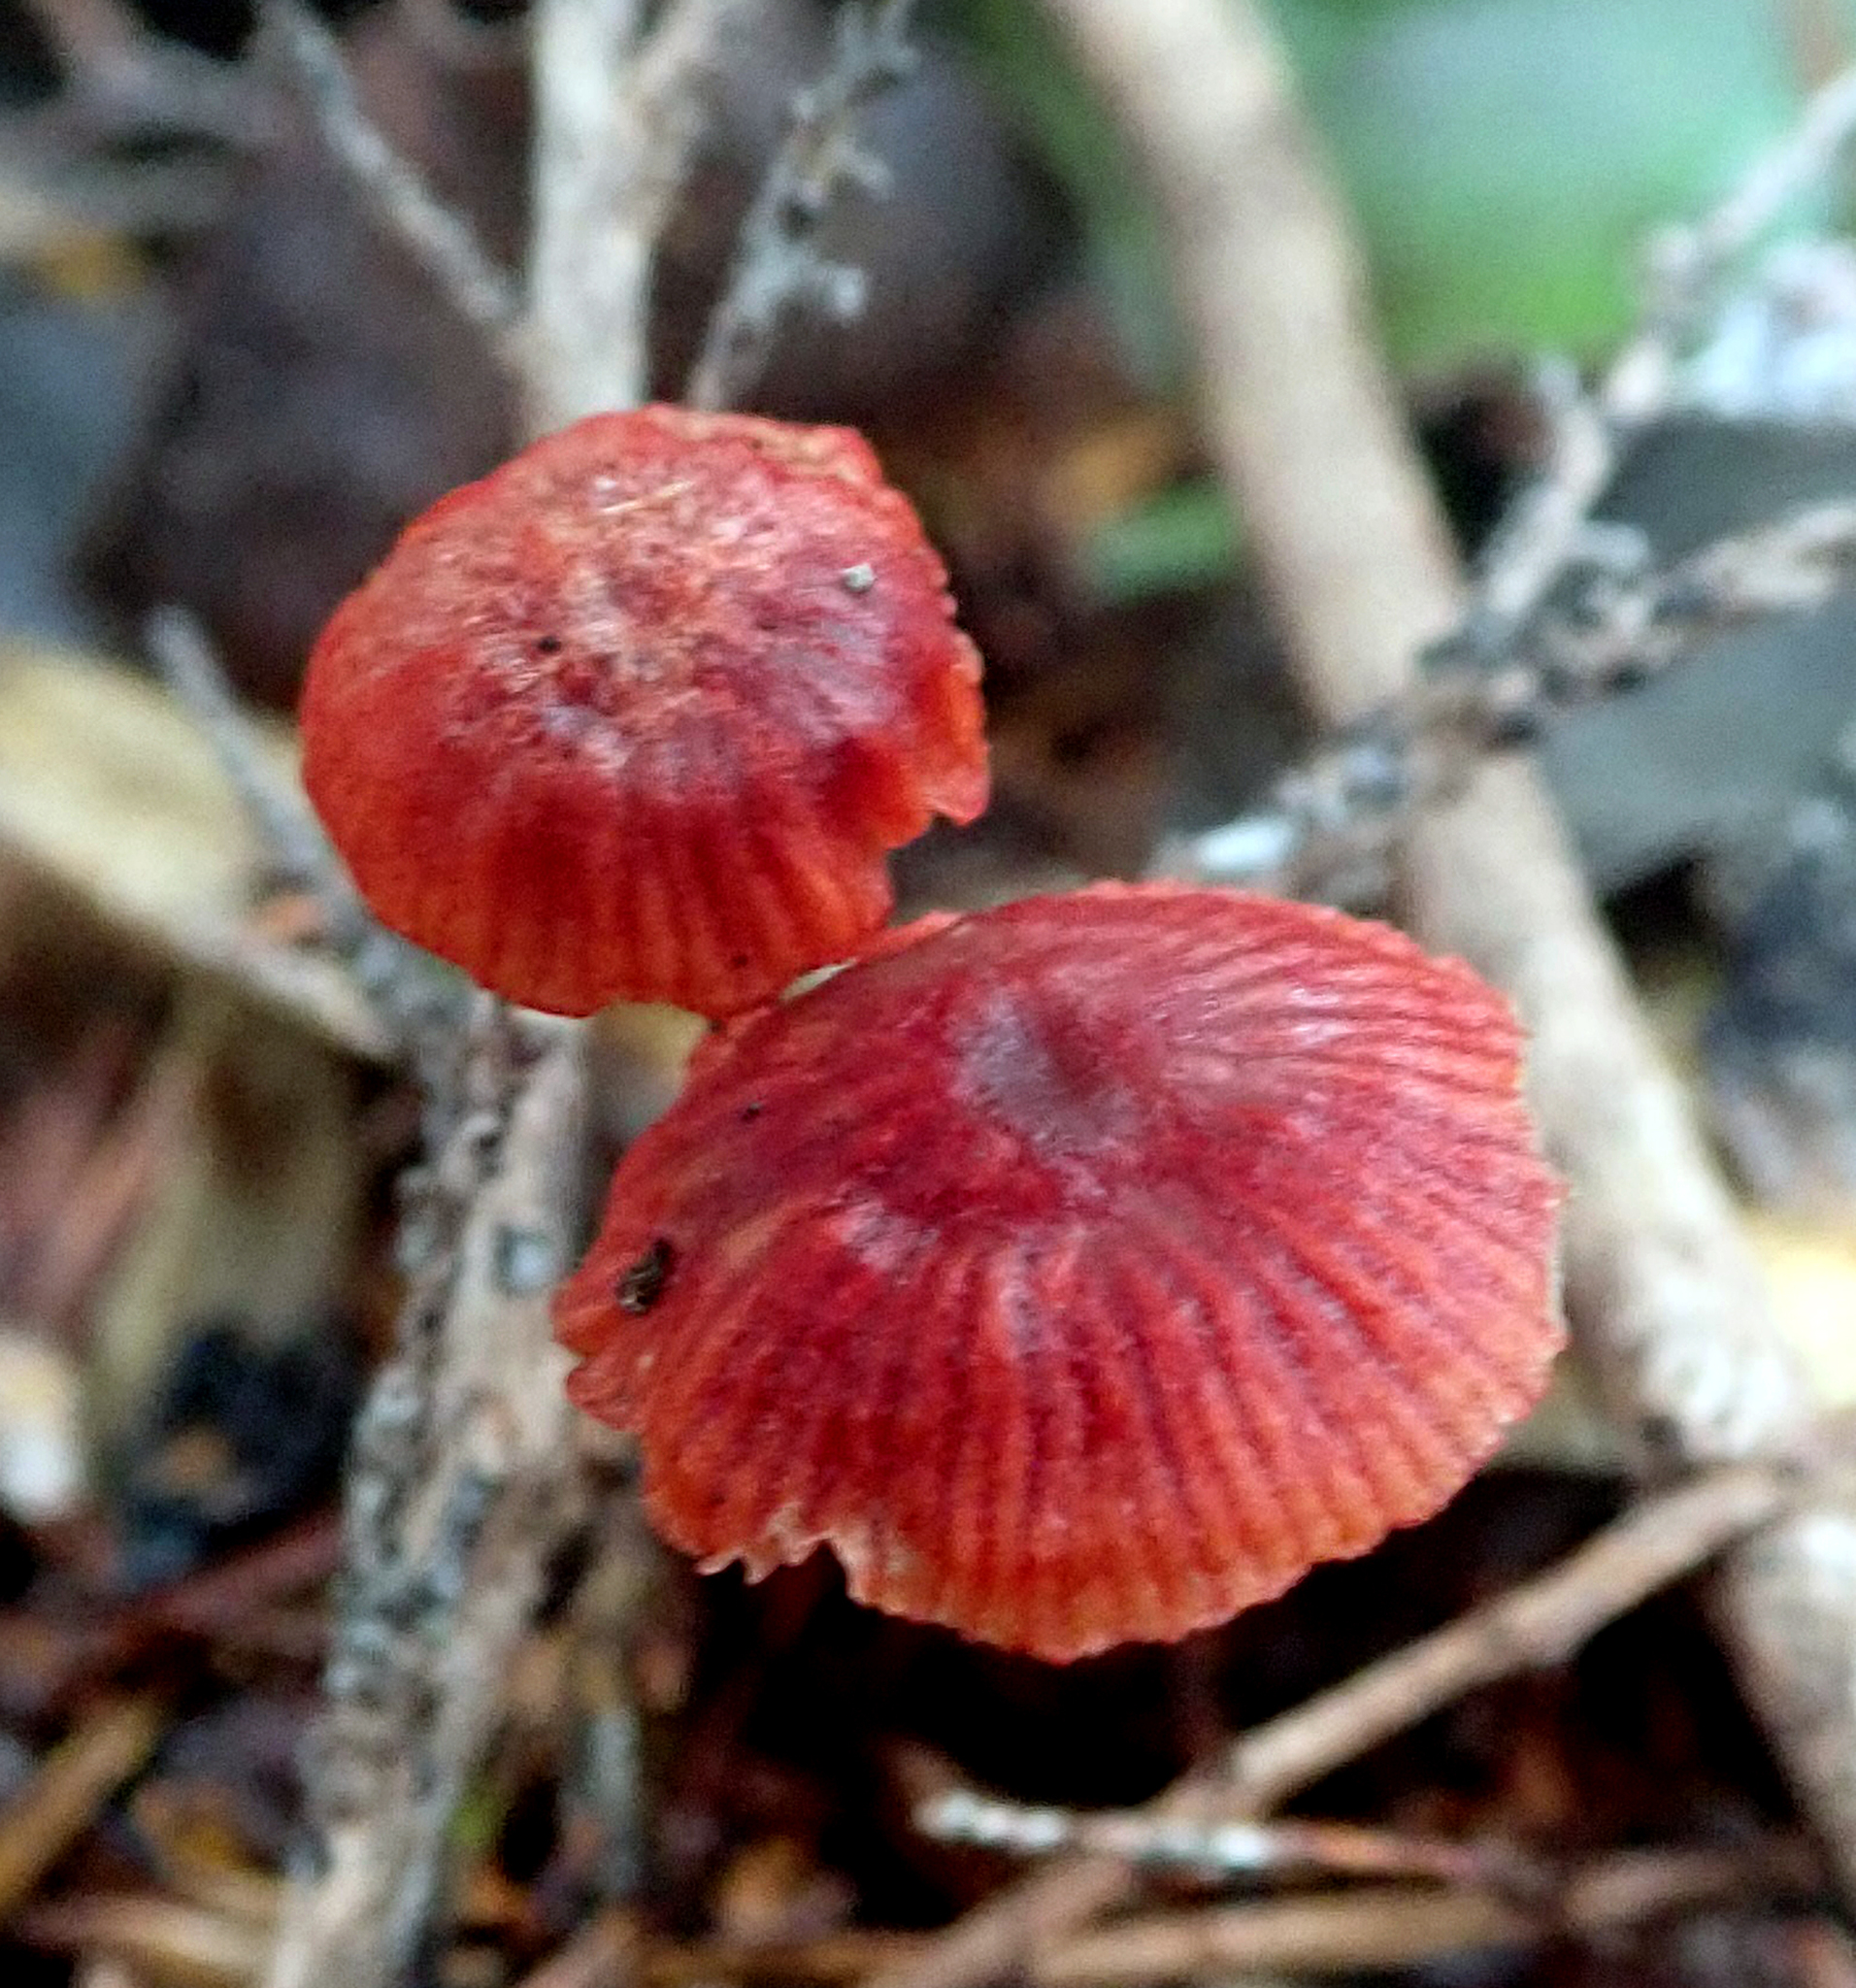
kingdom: Fungi
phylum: Basidiomycota
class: Agaricomycetes
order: Agaricales
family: Mycenaceae
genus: Cruentomycena
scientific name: Cruentomycena viscidocruenta
